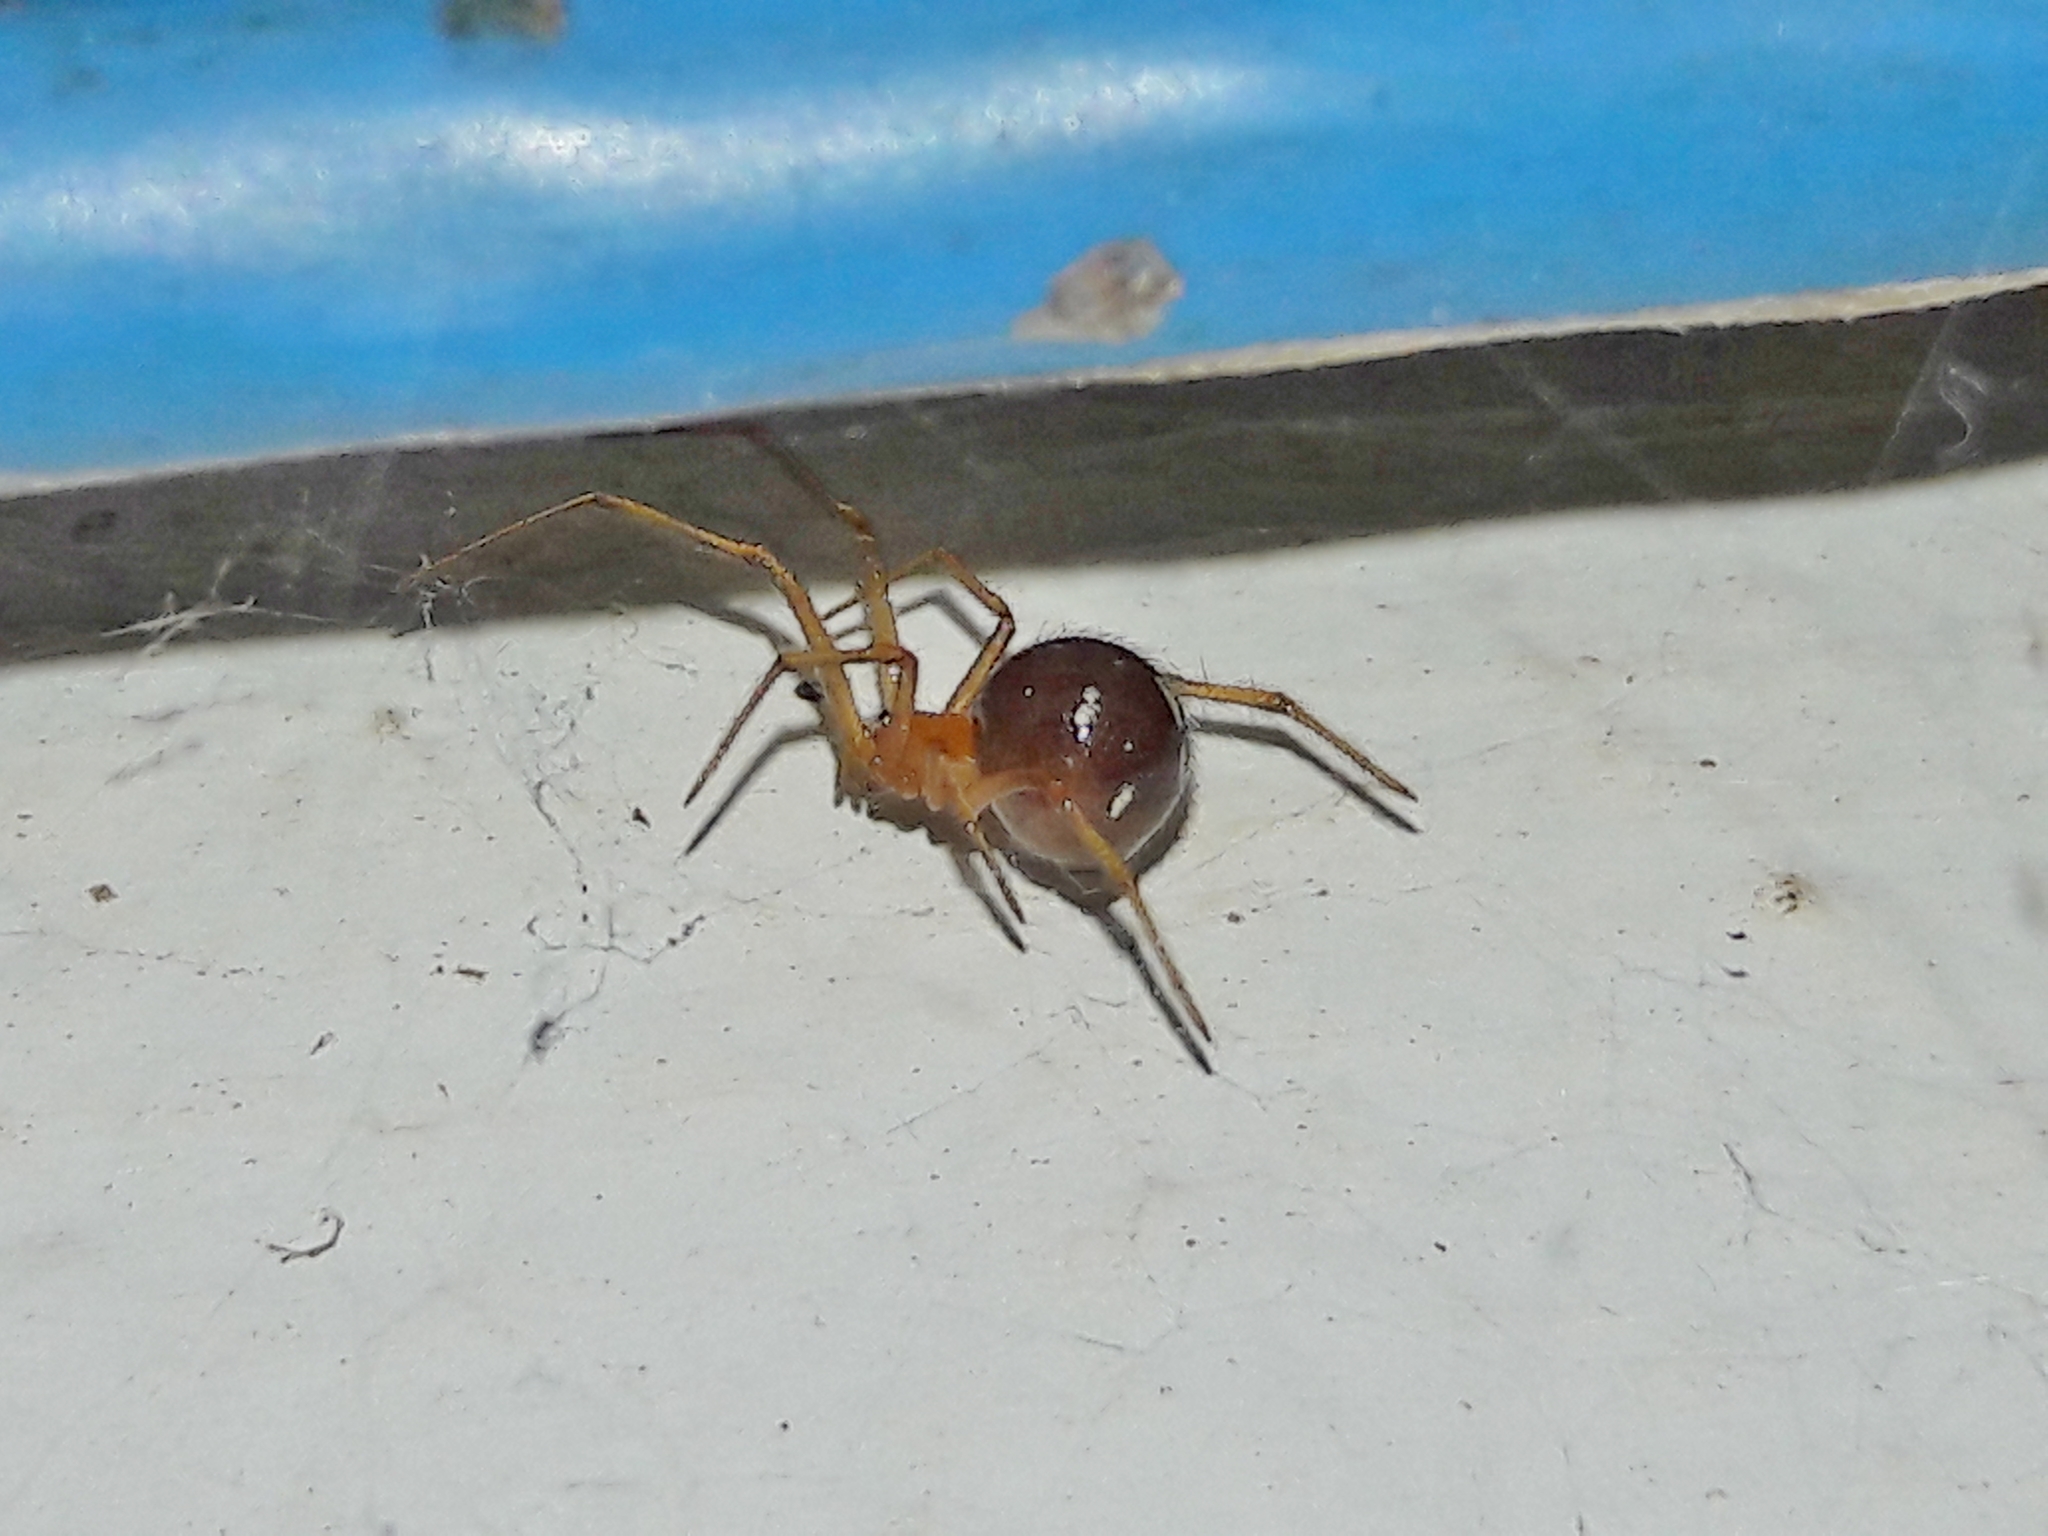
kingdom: Animalia
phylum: Arthropoda
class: Arachnida
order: Araneae
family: Theridiidae
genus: Nesticodes
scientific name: Nesticodes rufipes
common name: Cobweb spiders
